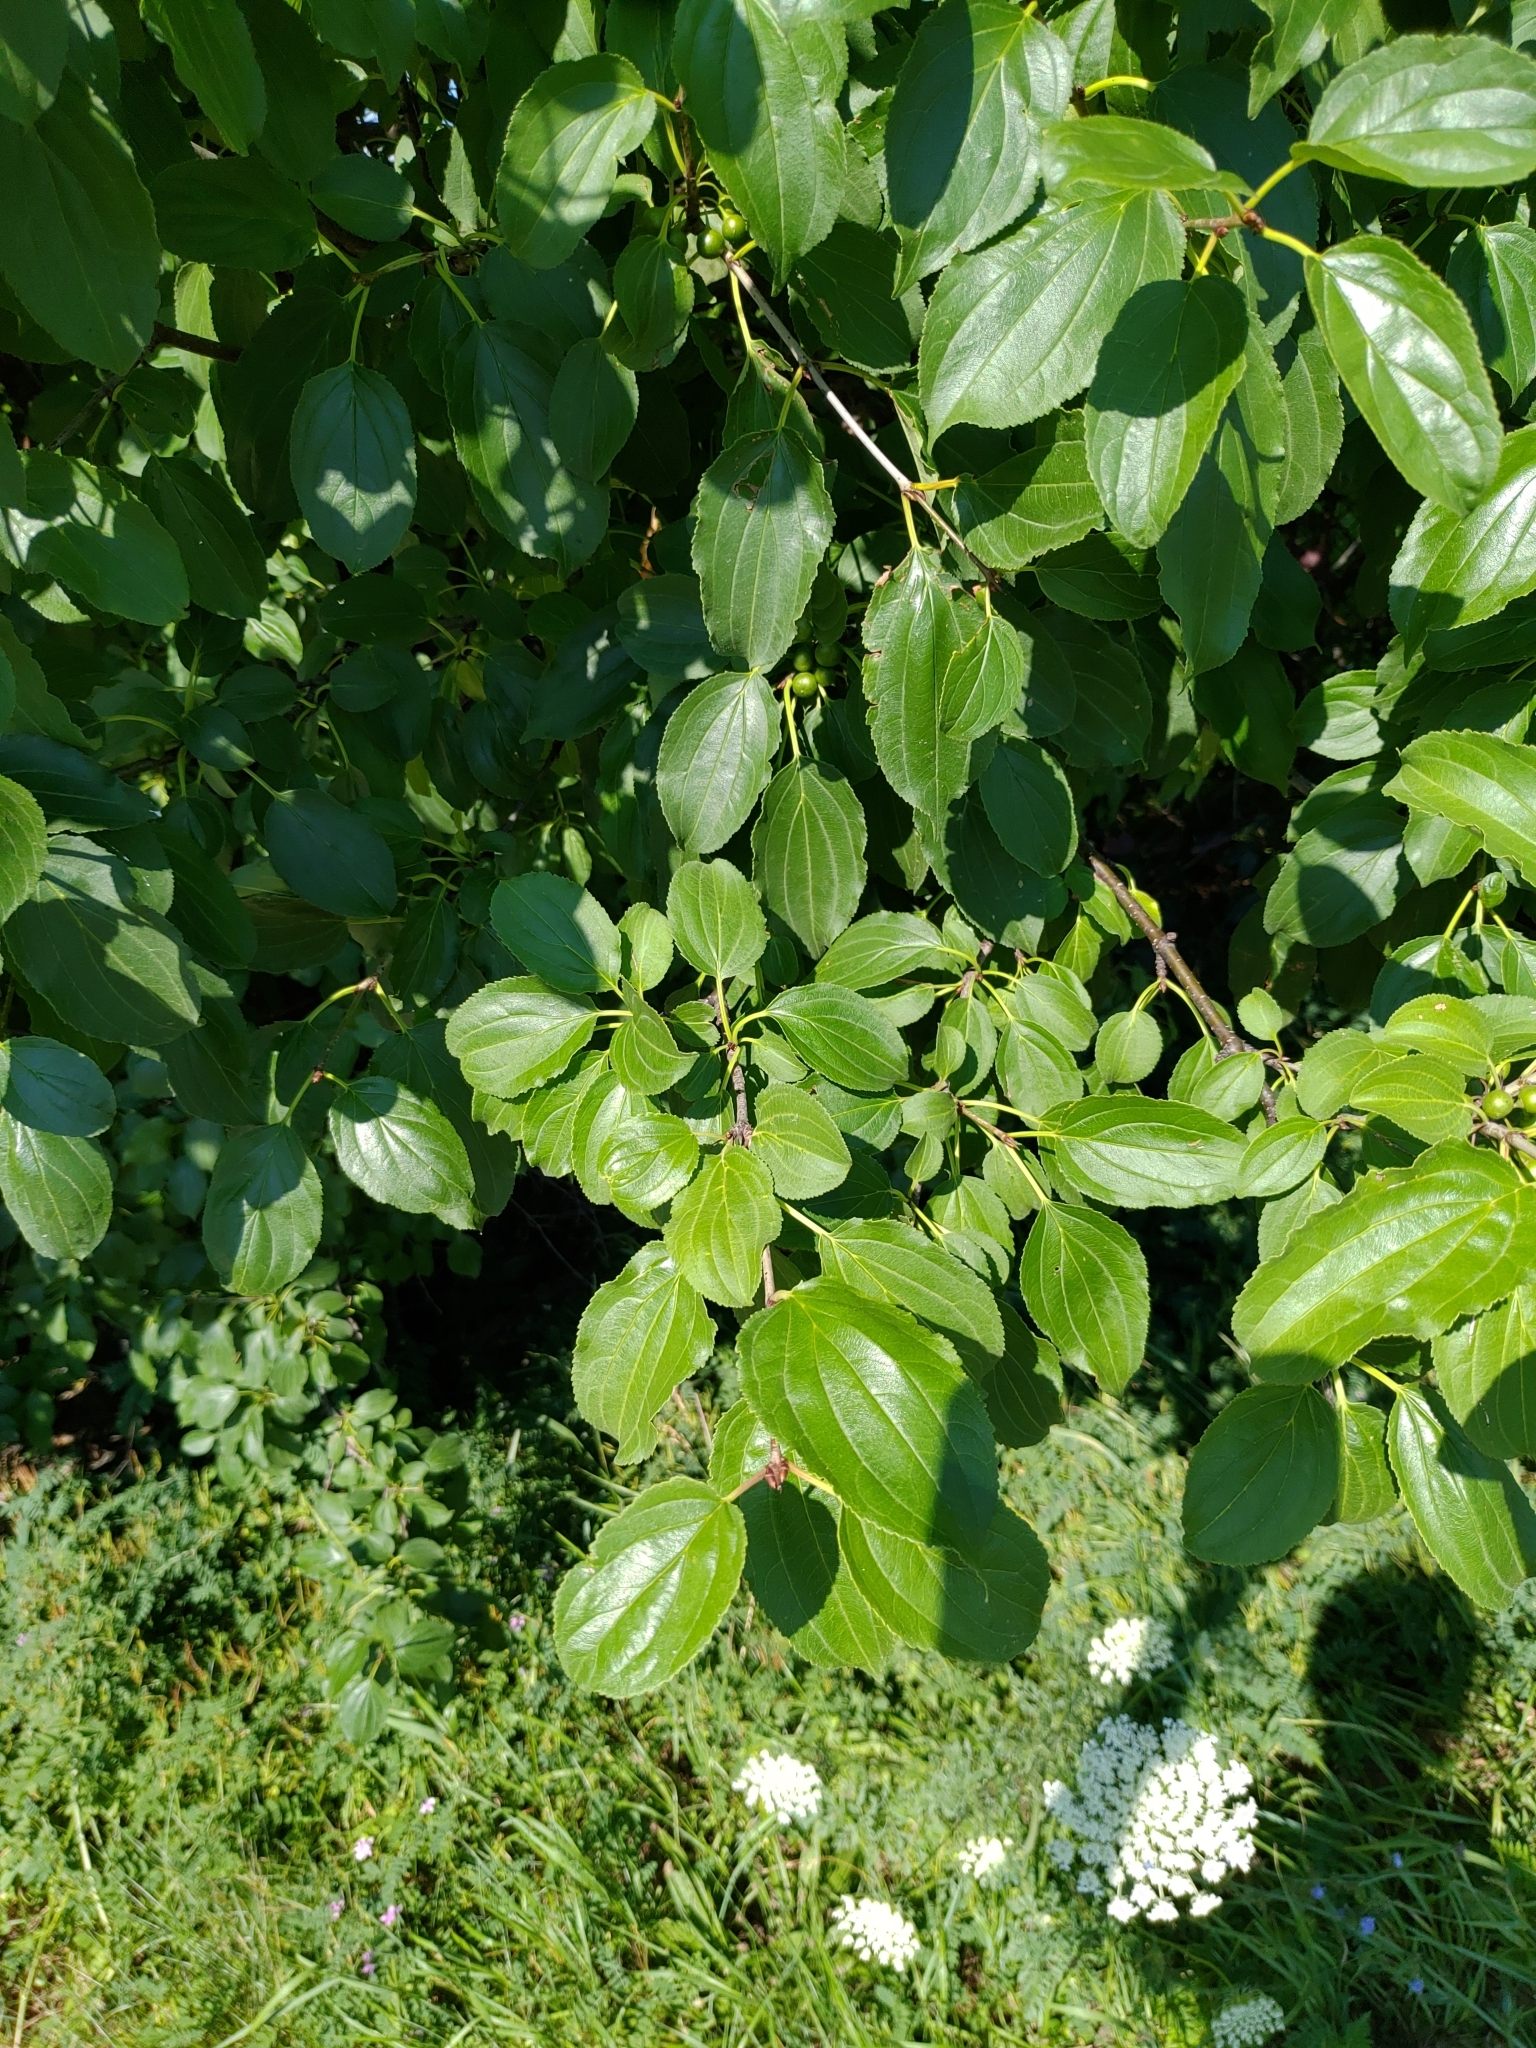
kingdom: Plantae
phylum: Tracheophyta
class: Magnoliopsida
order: Rosales
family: Rhamnaceae
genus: Rhamnus
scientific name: Rhamnus cathartica
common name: Common buckthorn
